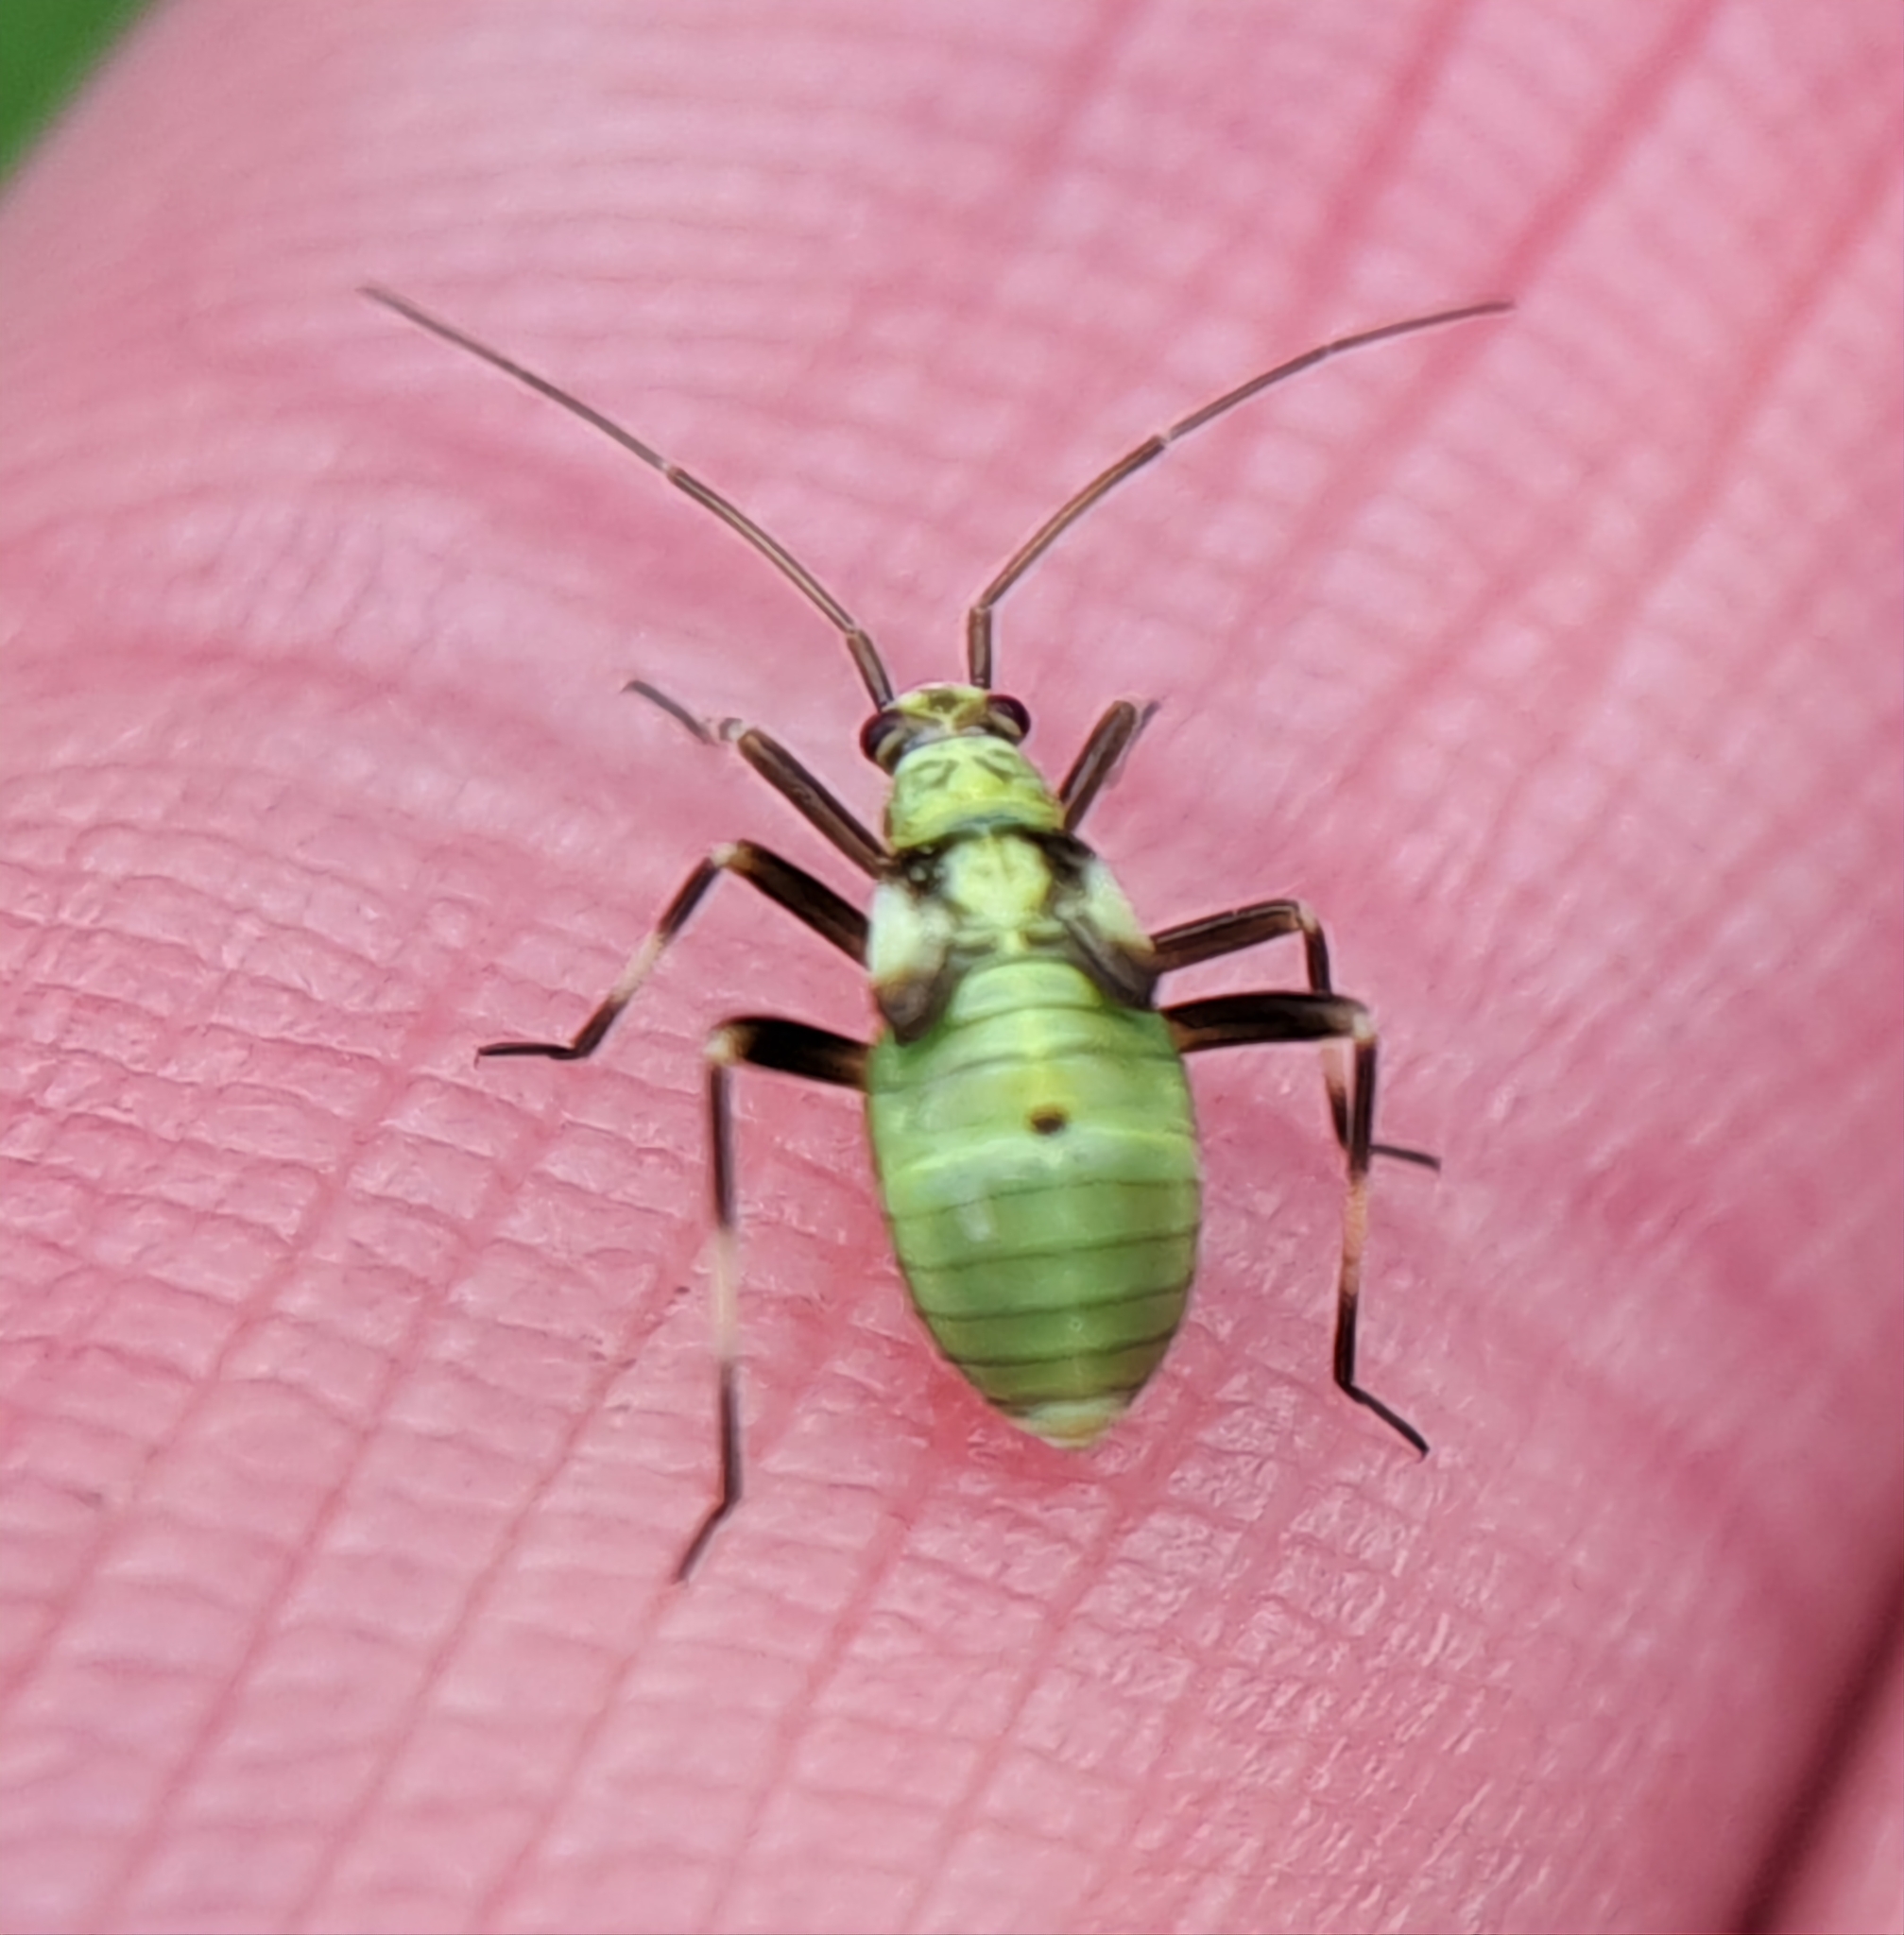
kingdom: Animalia
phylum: Arthropoda
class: Insecta
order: Hemiptera
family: Miridae
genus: Calocoris
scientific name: Calocoris alpestris
